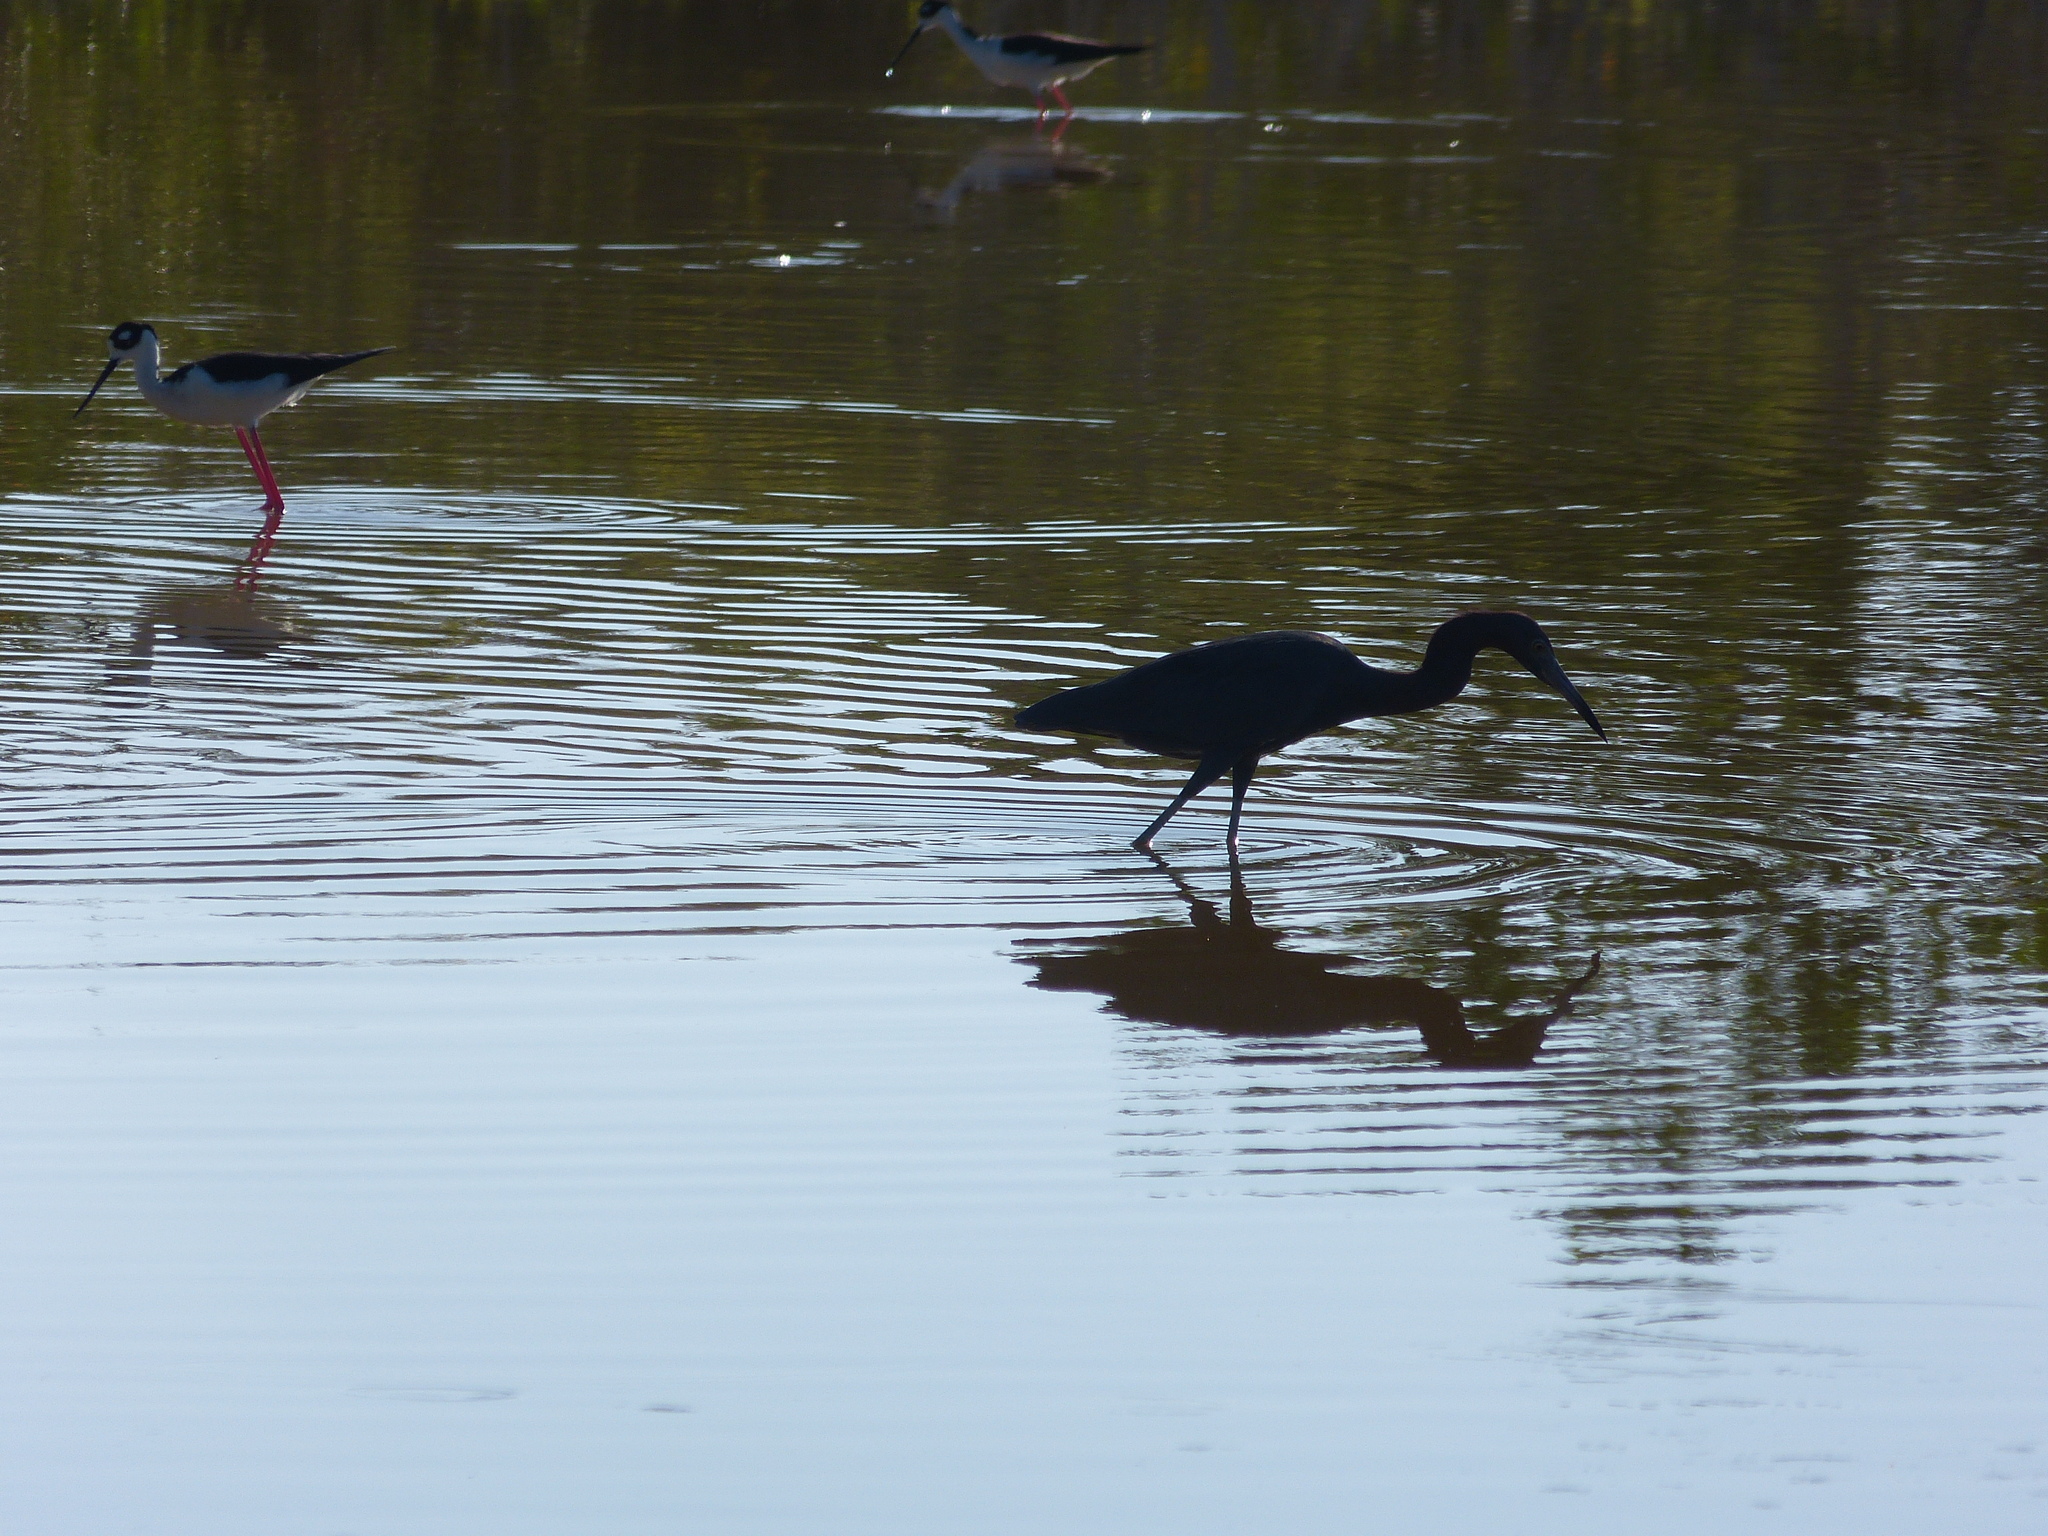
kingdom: Animalia
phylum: Chordata
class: Aves
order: Pelecaniformes
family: Ardeidae
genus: Egretta
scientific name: Egretta caerulea
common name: Little blue heron
